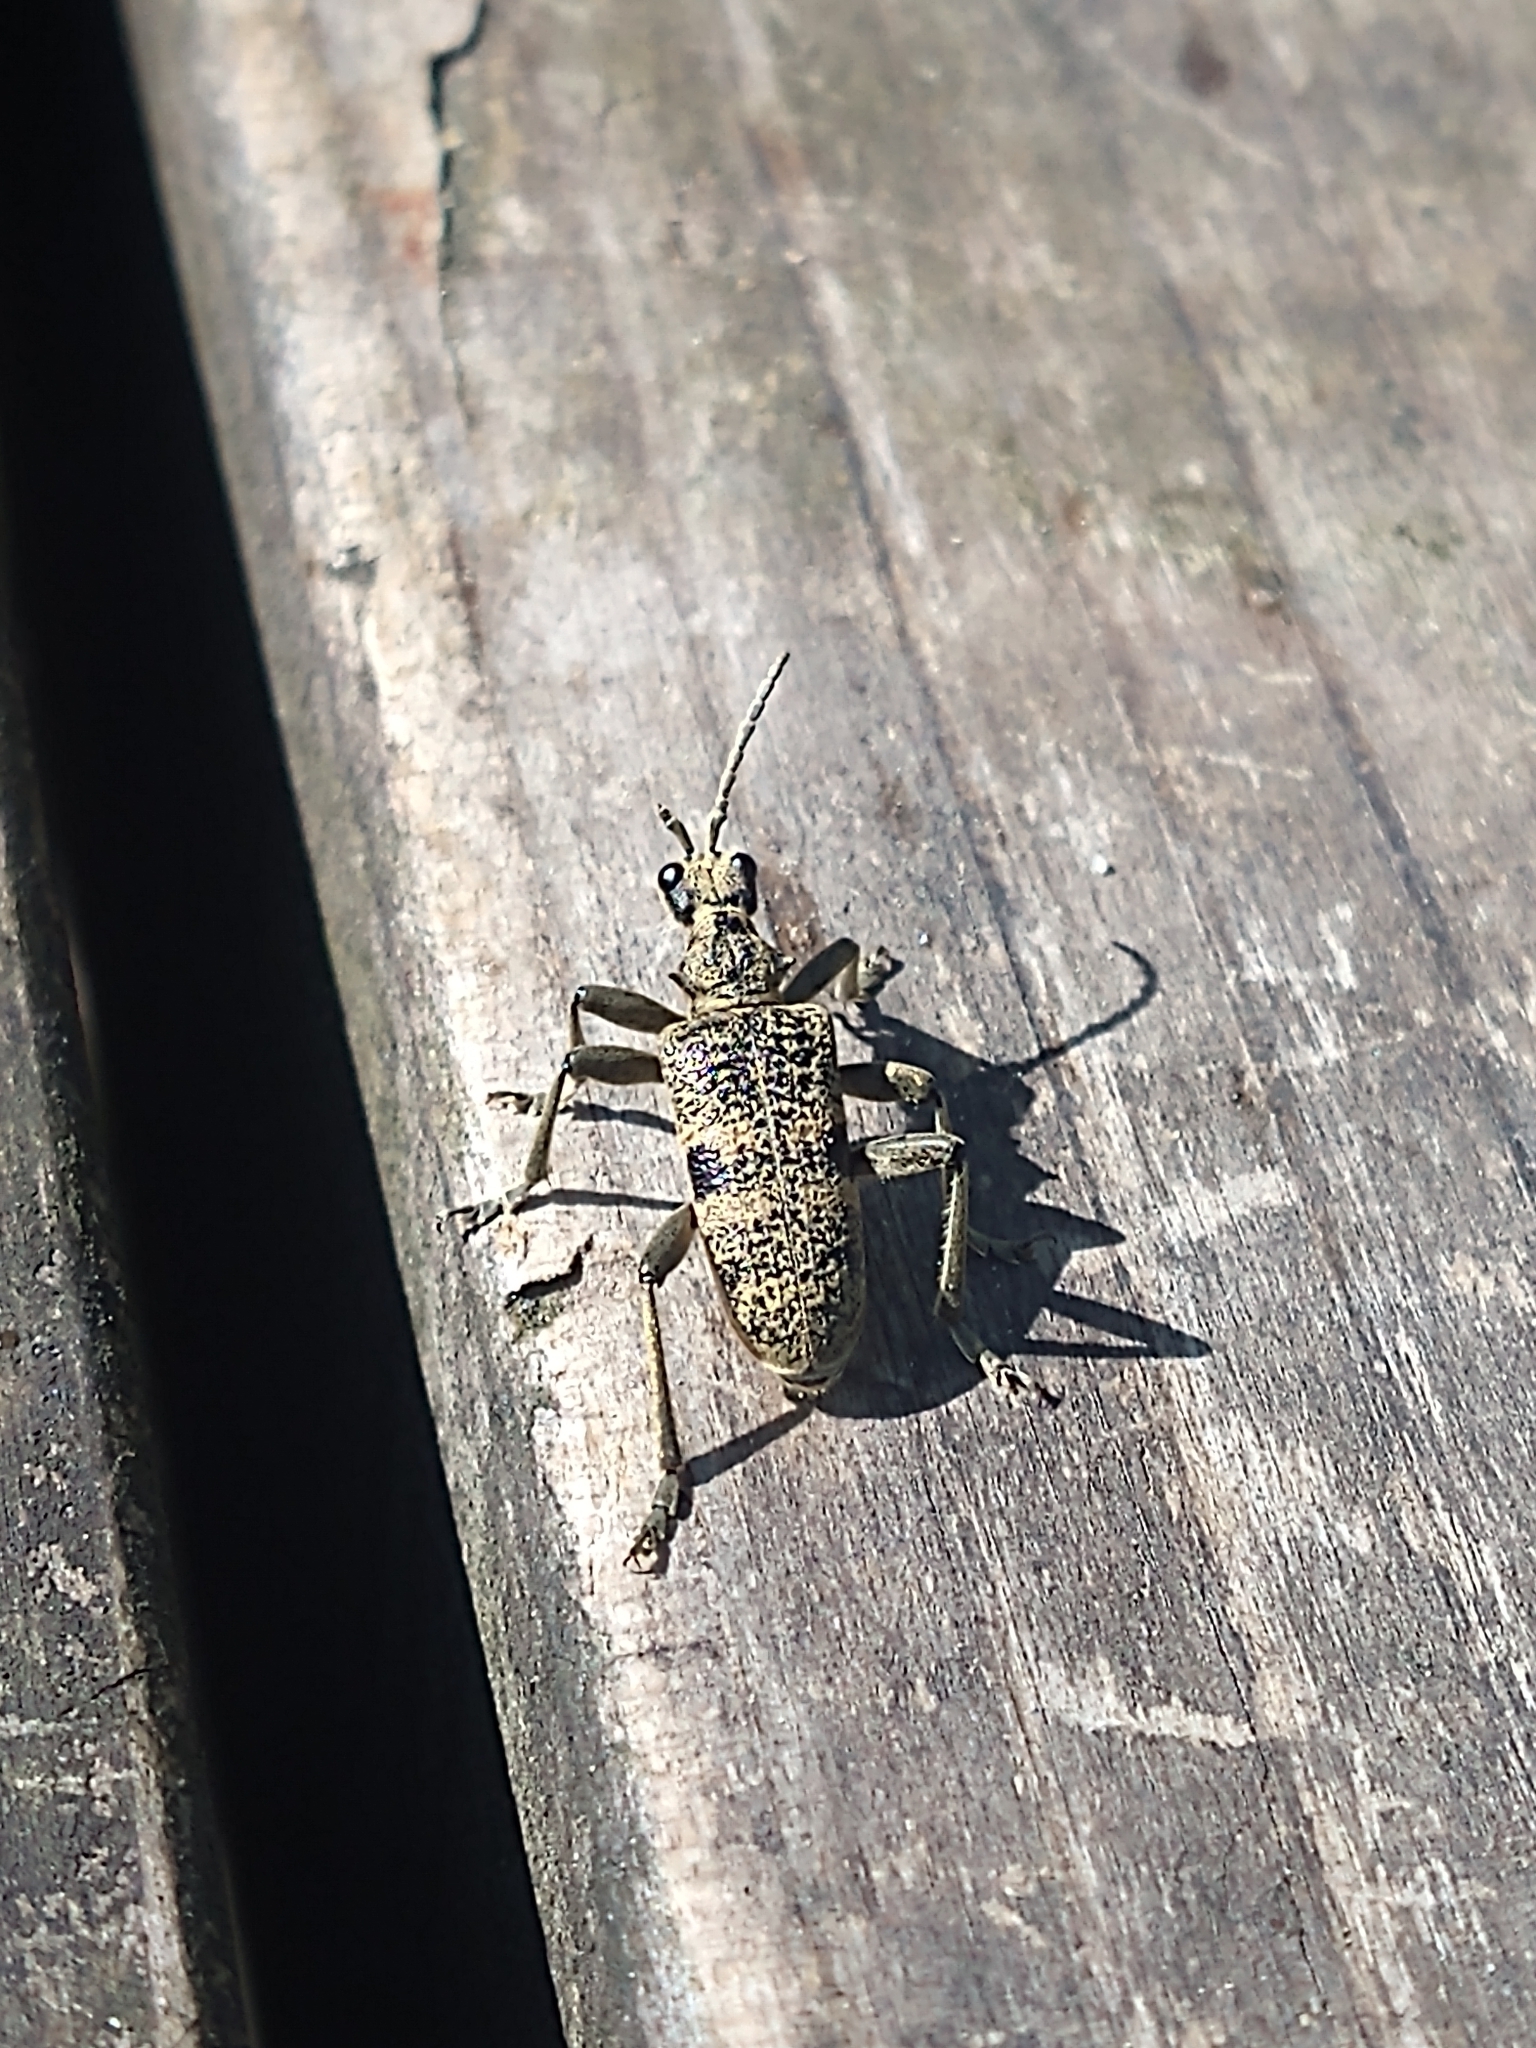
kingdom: Animalia
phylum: Arthropoda
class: Insecta
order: Coleoptera
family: Cerambycidae
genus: Rhagium
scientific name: Rhagium mordax
